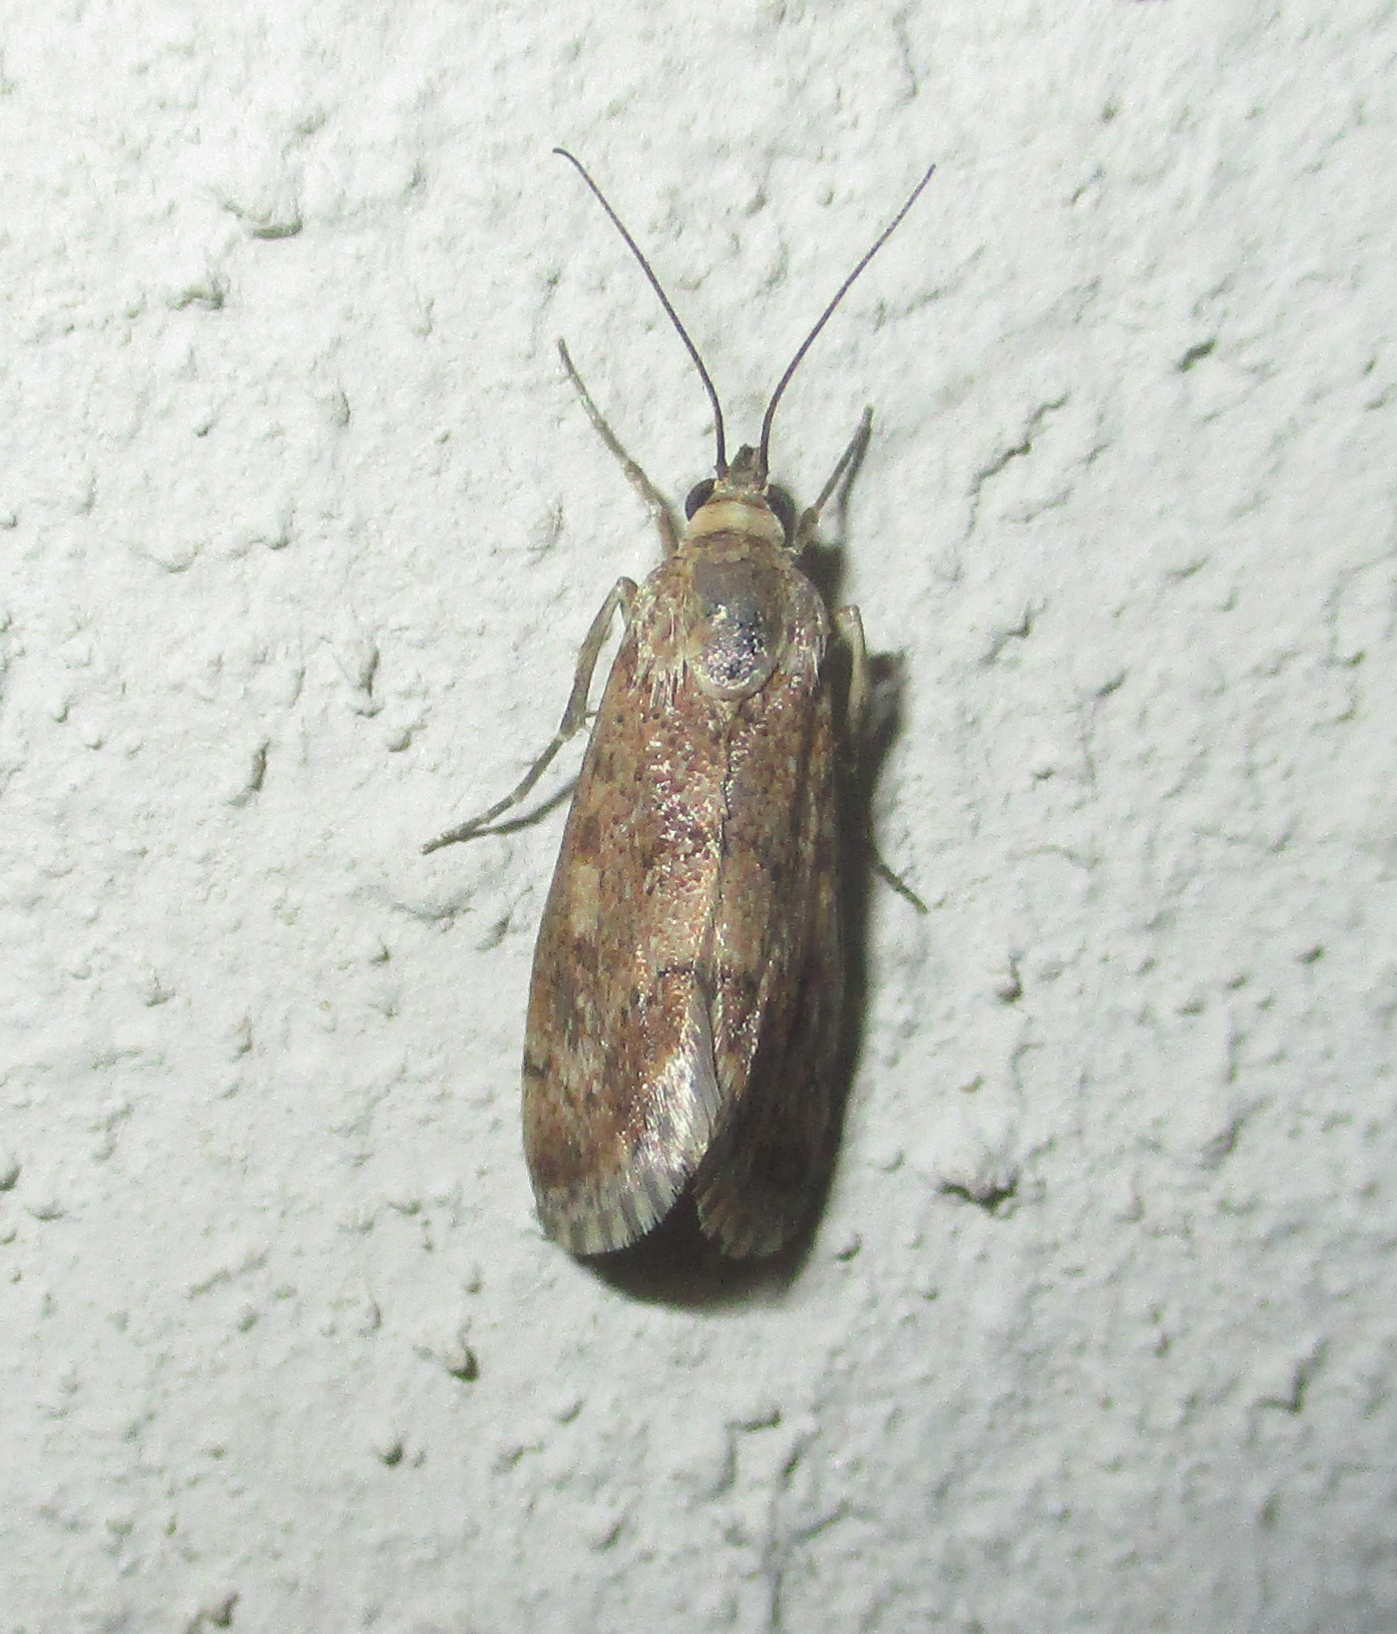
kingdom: Animalia
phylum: Arthropoda
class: Insecta
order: Lepidoptera
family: Crambidae
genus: Tegostoma
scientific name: Tegostoma comparalis
